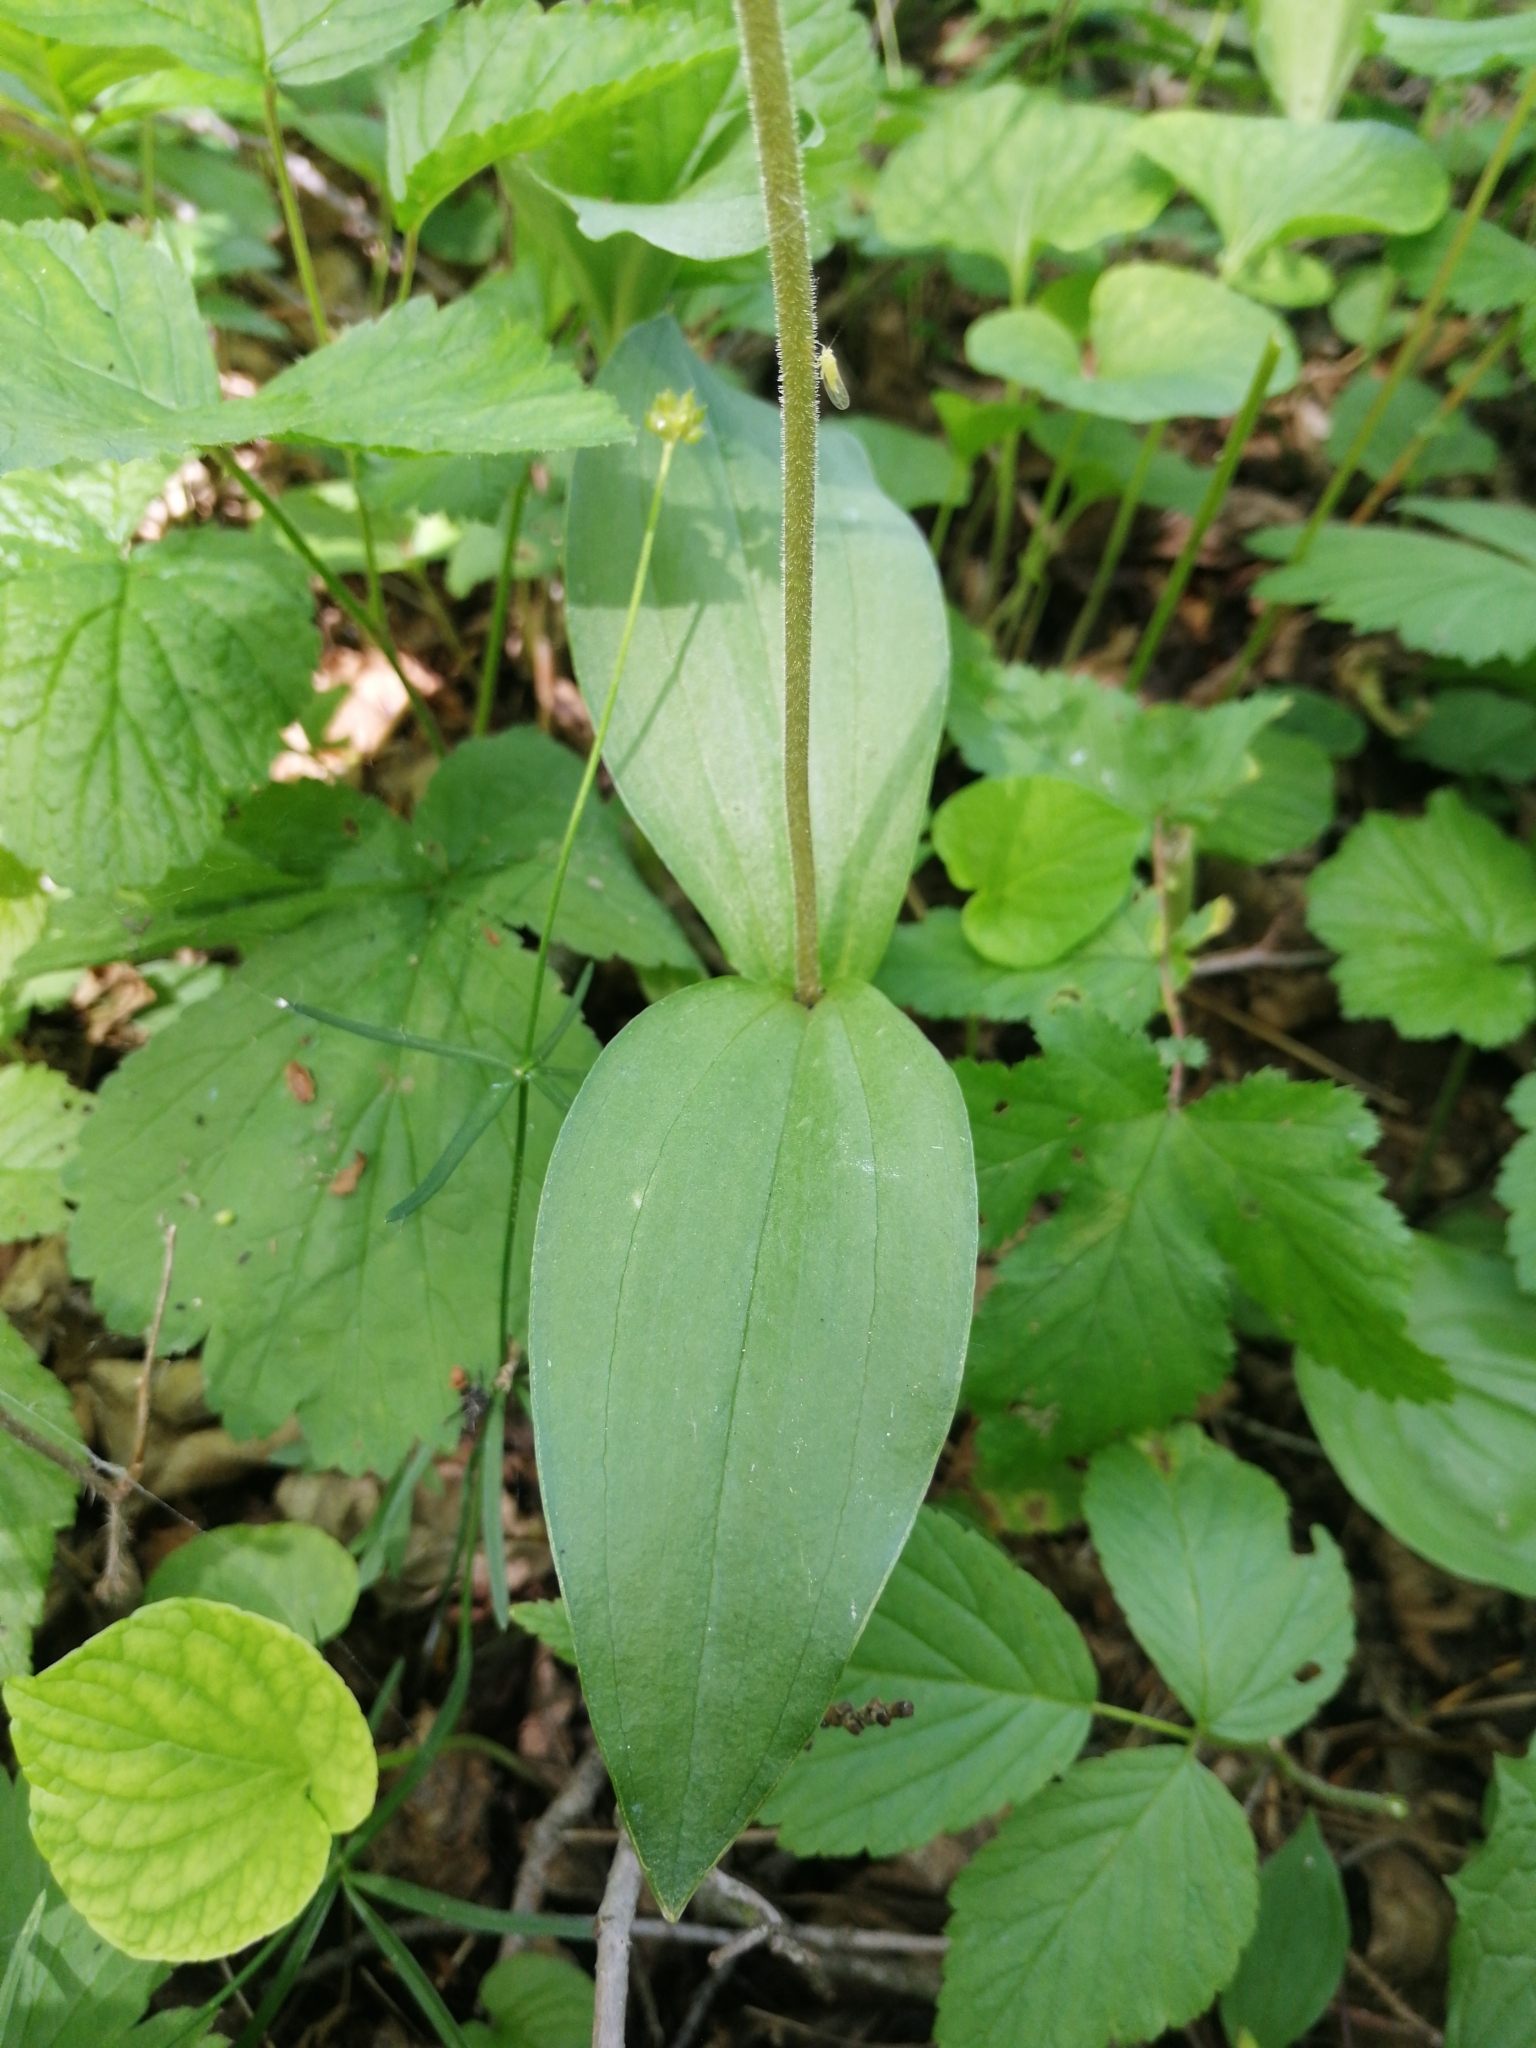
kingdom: Plantae
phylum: Tracheophyta
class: Liliopsida
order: Asparagales
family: Orchidaceae
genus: Neottia
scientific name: Neottia ovata
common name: Common twayblade
